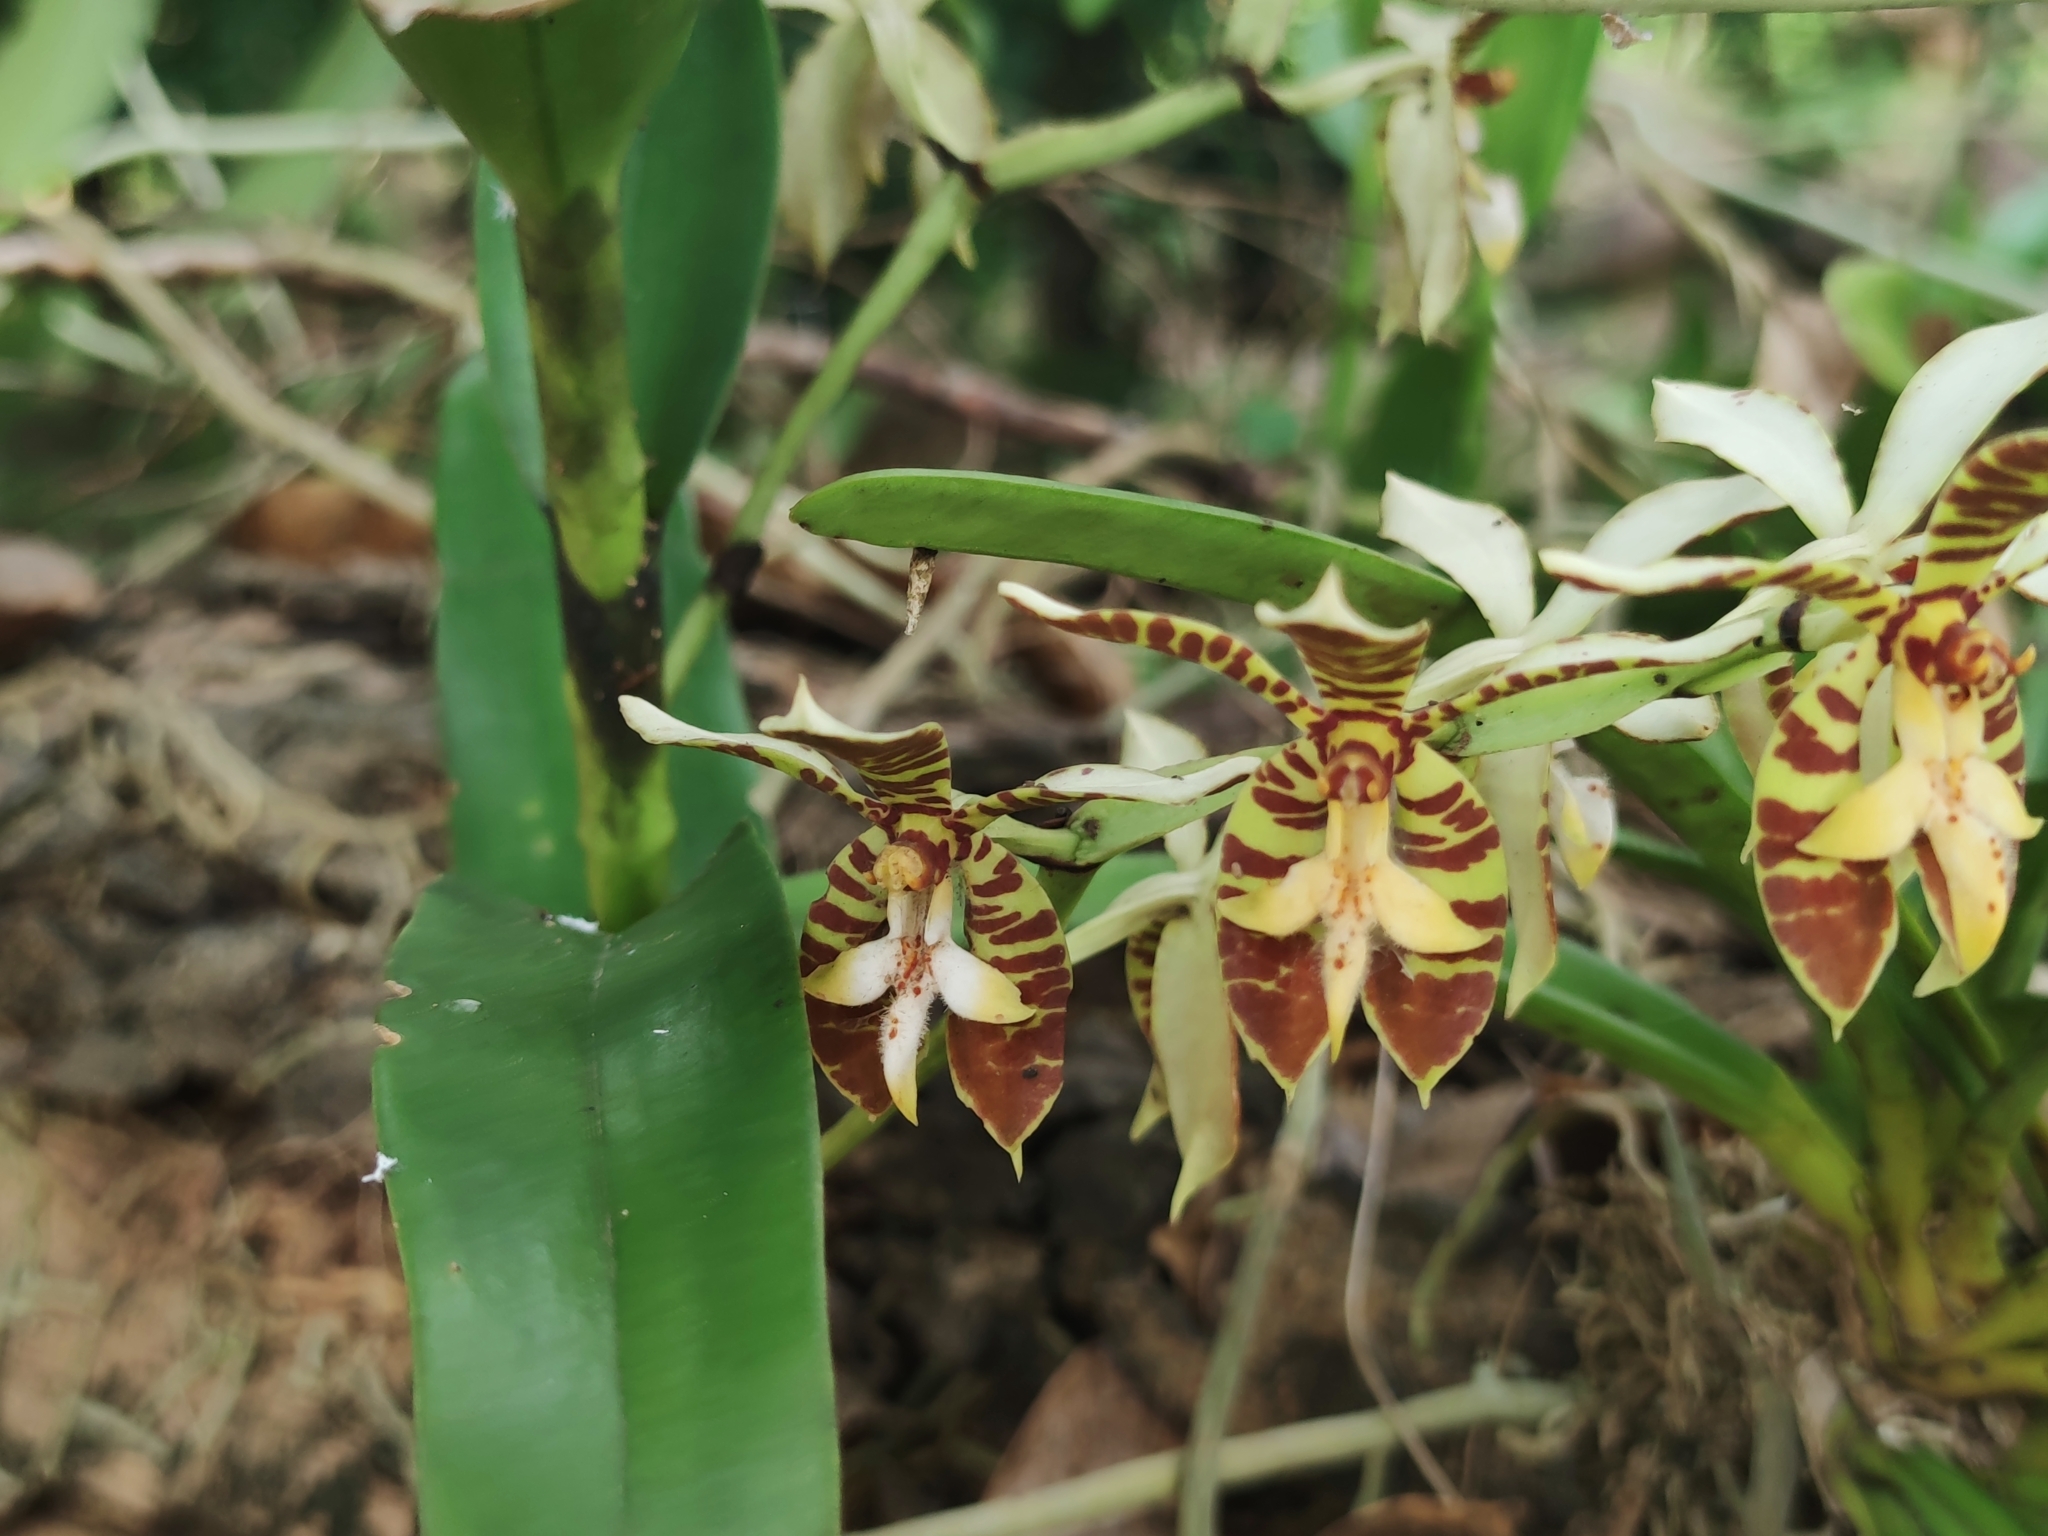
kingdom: Plantae
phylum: Tracheophyta
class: Liliopsida
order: Asparagales
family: Orchidaceae
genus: Trichoglottis
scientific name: Trichoglottis fasciata
